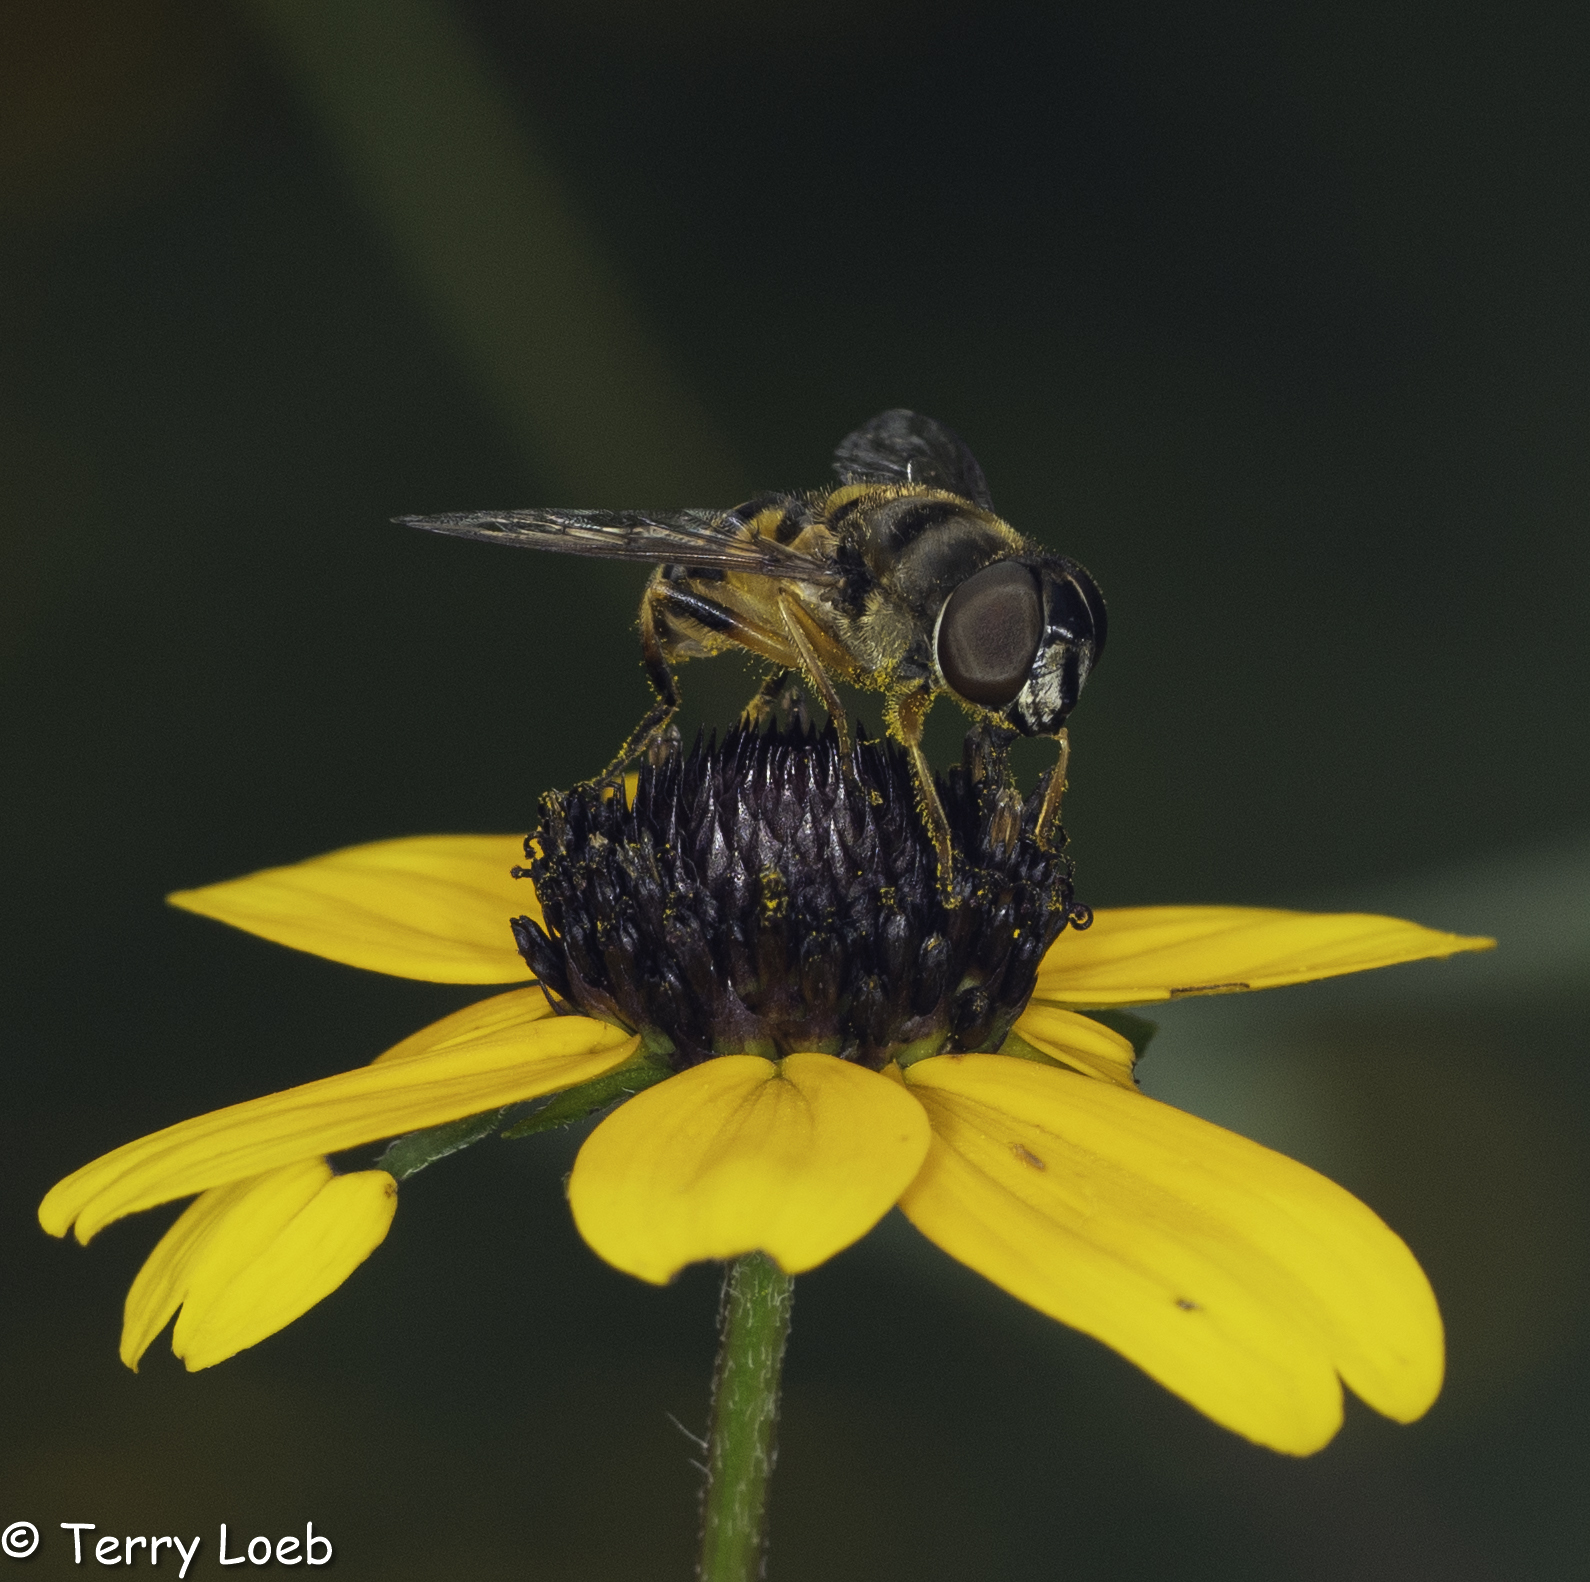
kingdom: Animalia
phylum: Arthropoda
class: Insecta
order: Diptera
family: Syrphidae
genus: Eristalis
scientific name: Eristalis transversa
